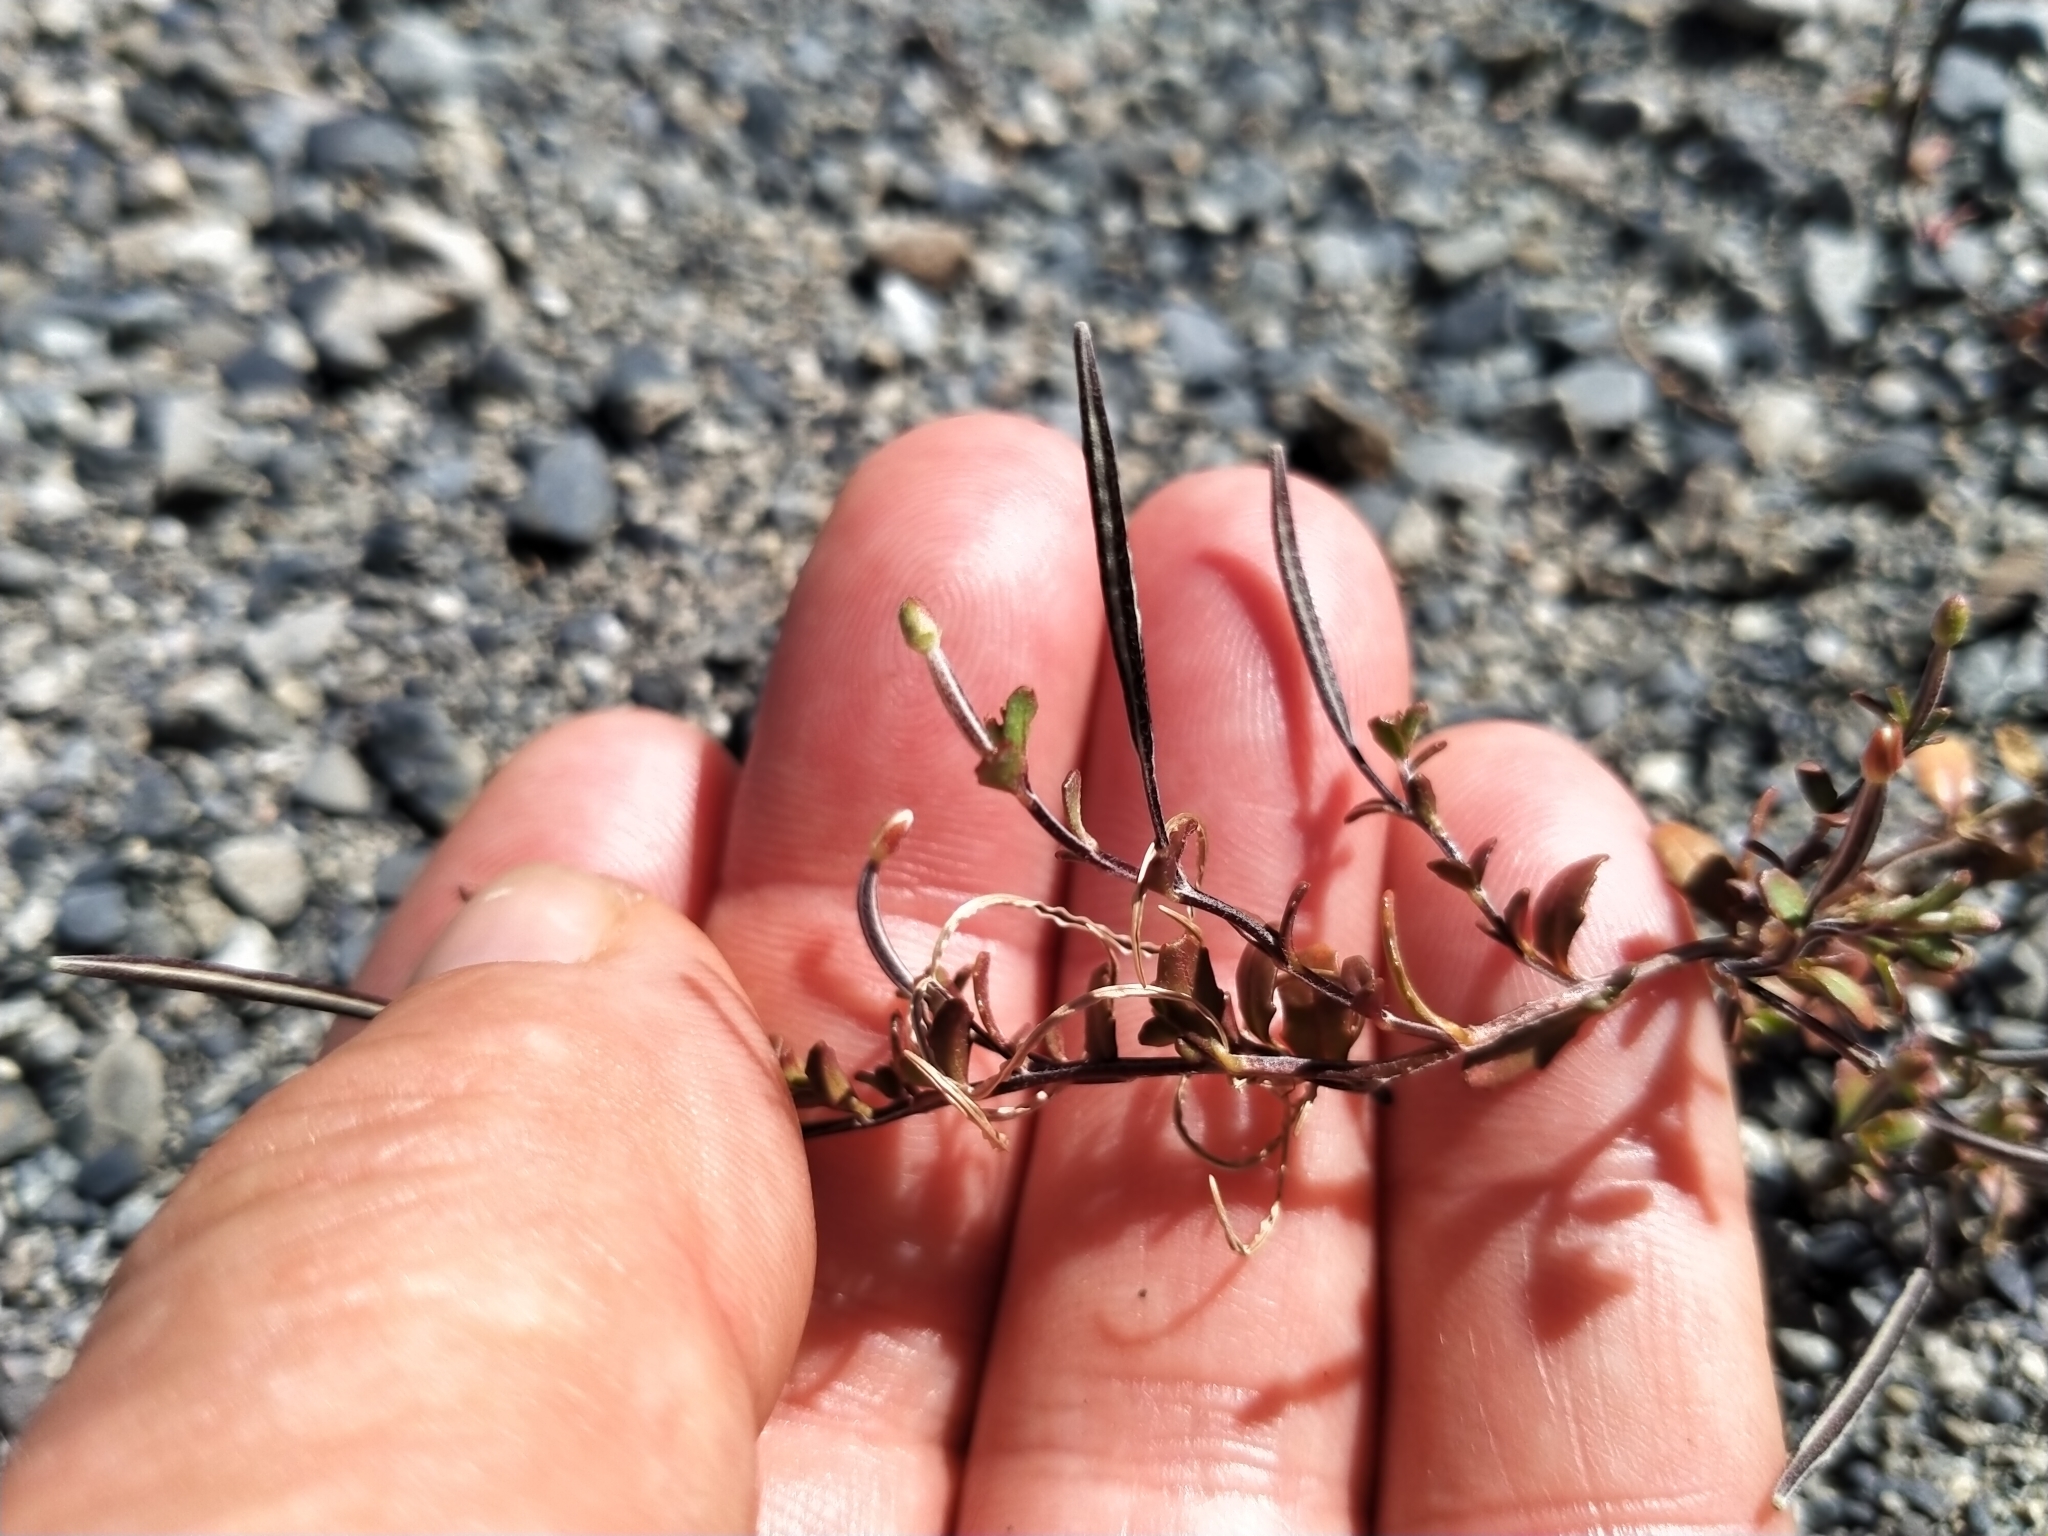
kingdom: Plantae
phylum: Tracheophyta
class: Magnoliopsida
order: Myrtales
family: Onagraceae
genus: Epilobium
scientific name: Epilobium microphyllum
